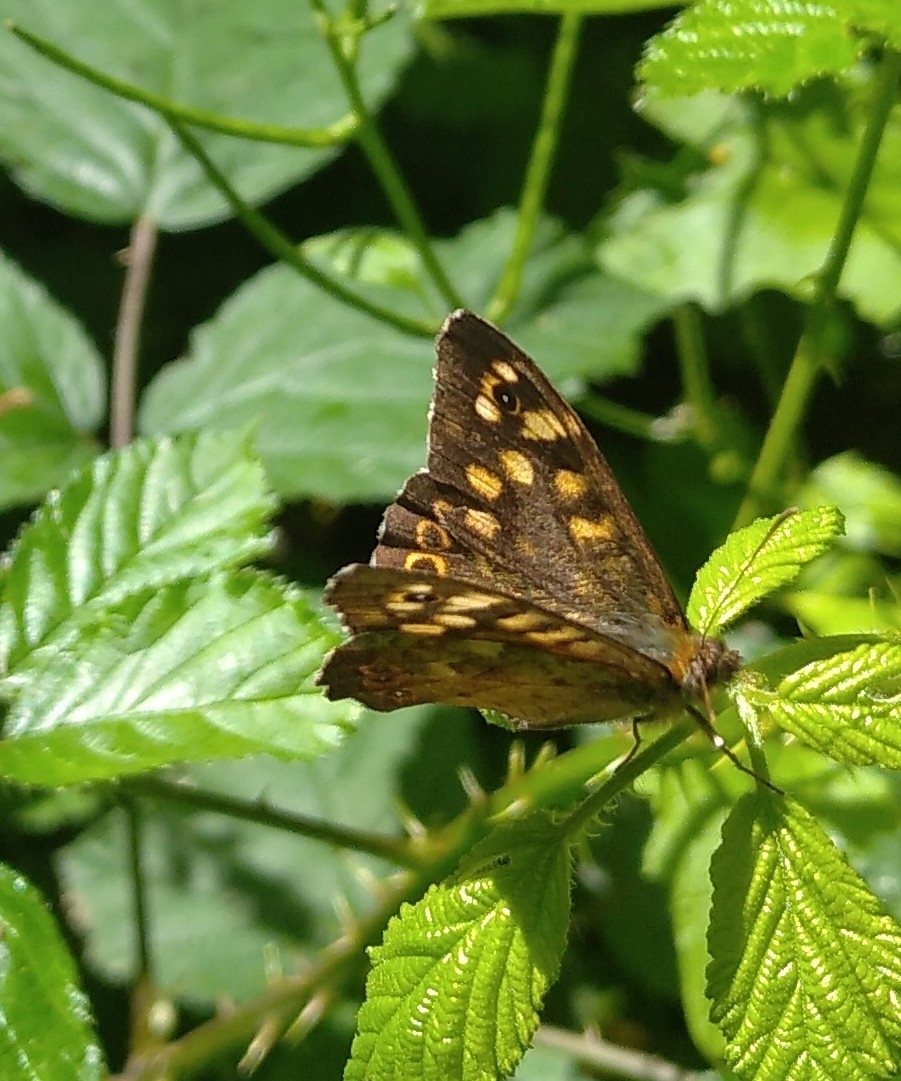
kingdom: Animalia
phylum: Arthropoda
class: Insecta
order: Lepidoptera
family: Nymphalidae
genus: Pararge
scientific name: Pararge aegeria
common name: Speckled wood
